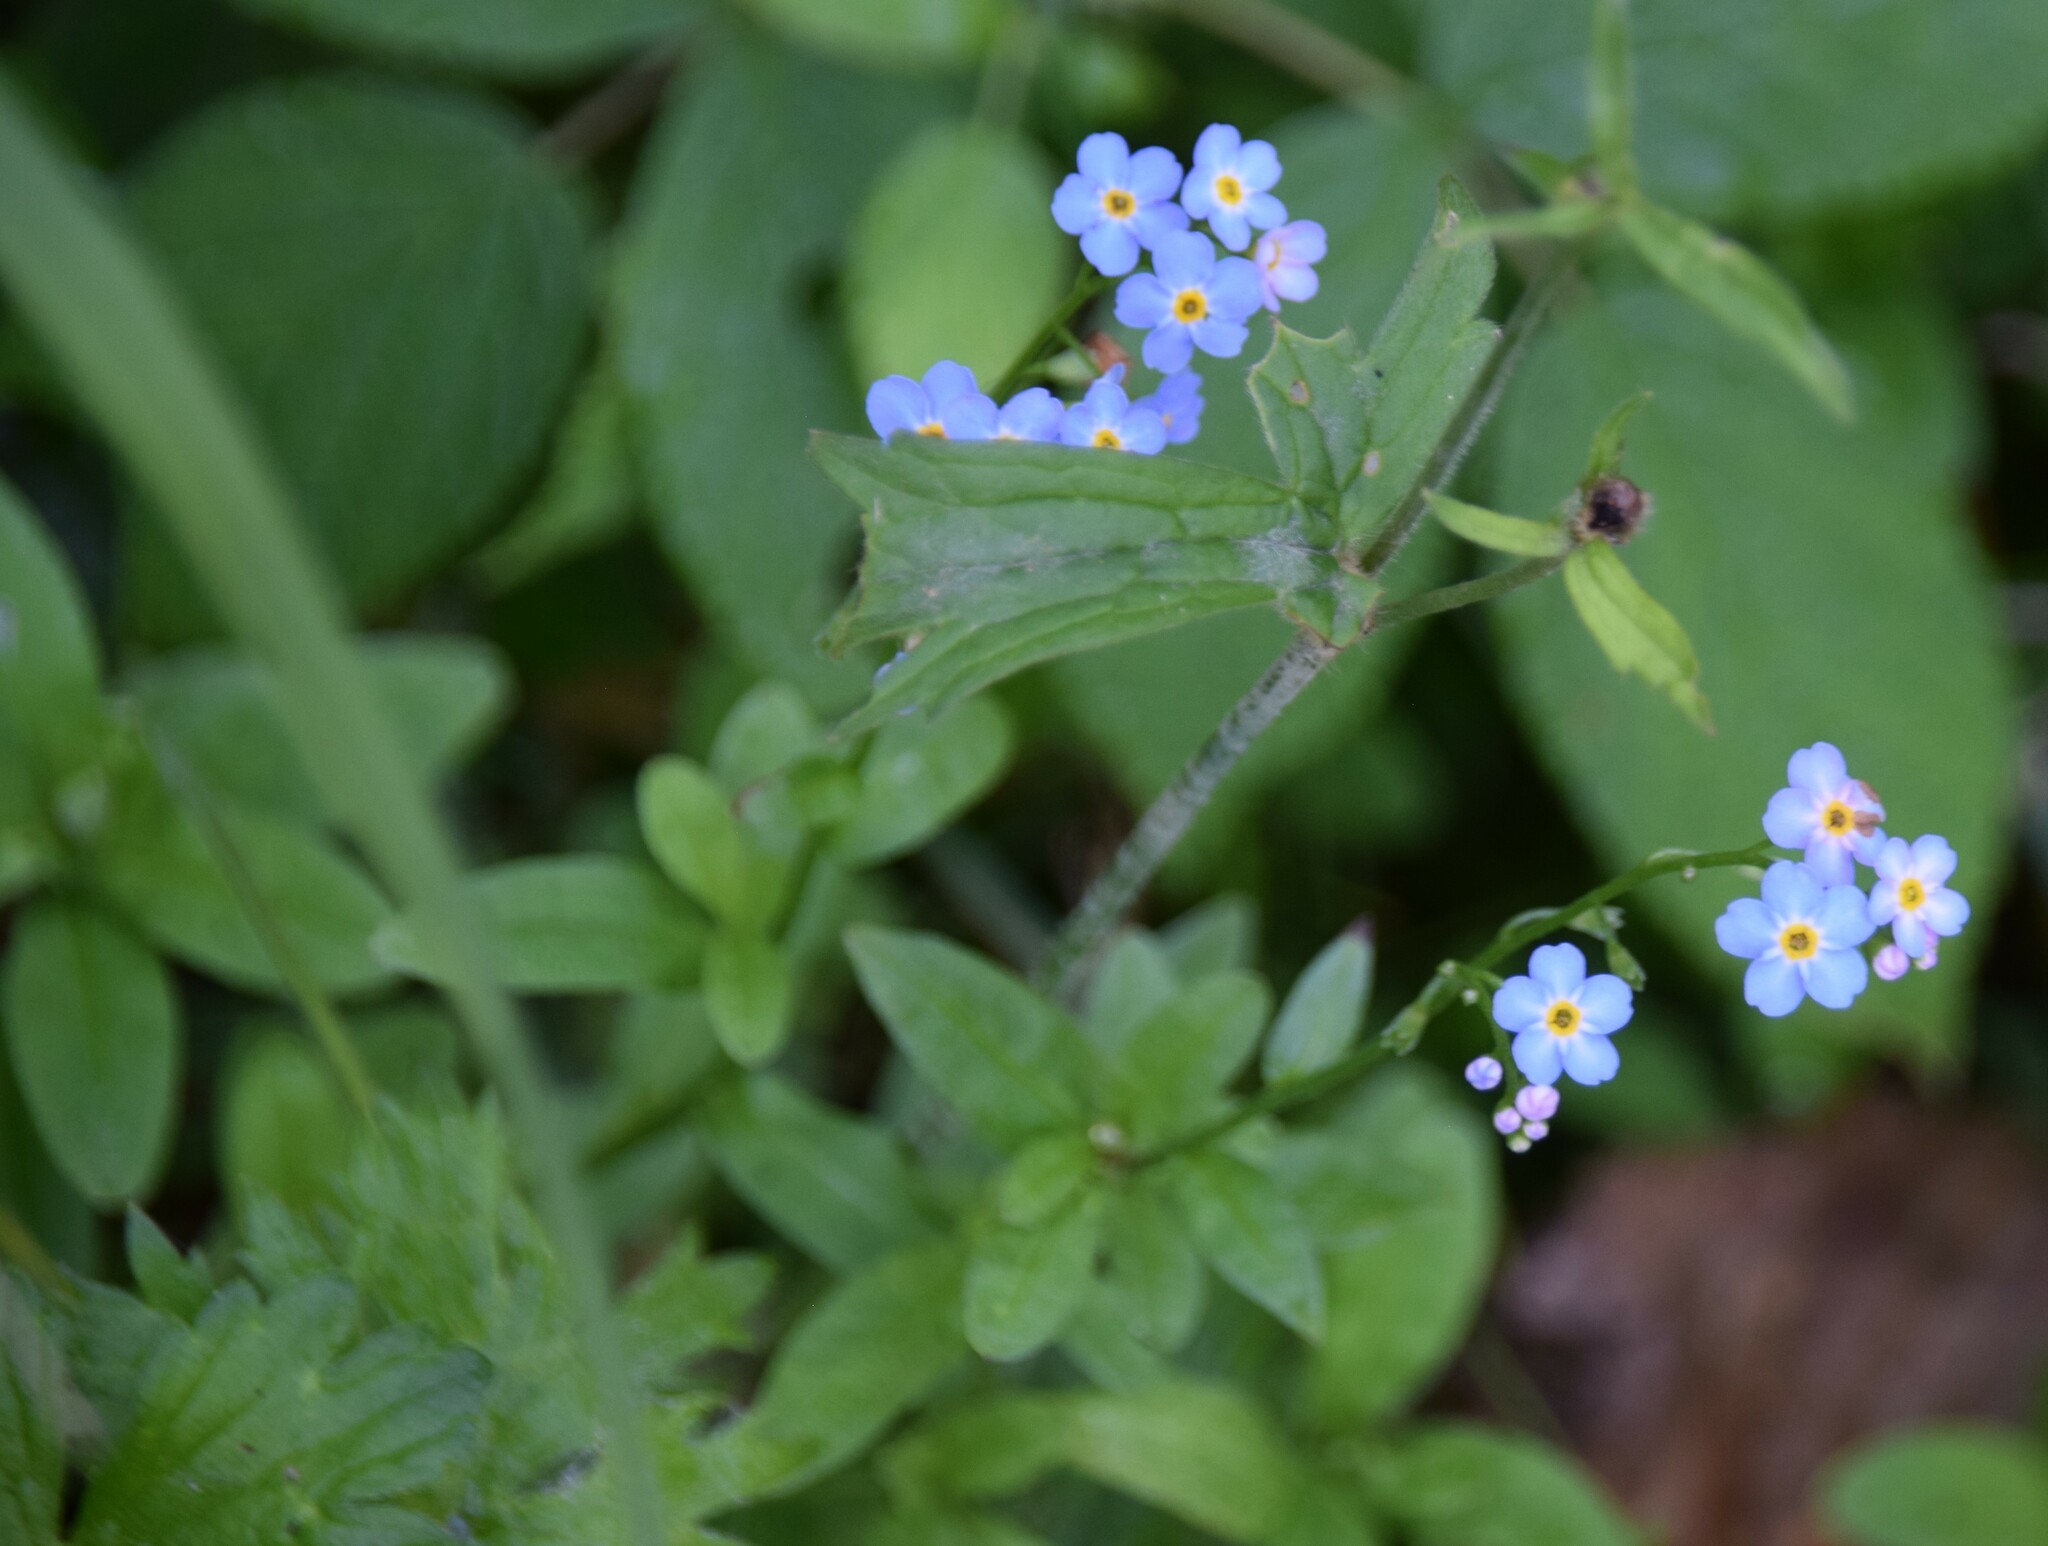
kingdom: Plantae
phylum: Tracheophyta
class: Magnoliopsida
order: Boraginales
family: Boraginaceae
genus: Myosotis
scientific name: Myosotis scorpioides
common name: Water forget-me-not
